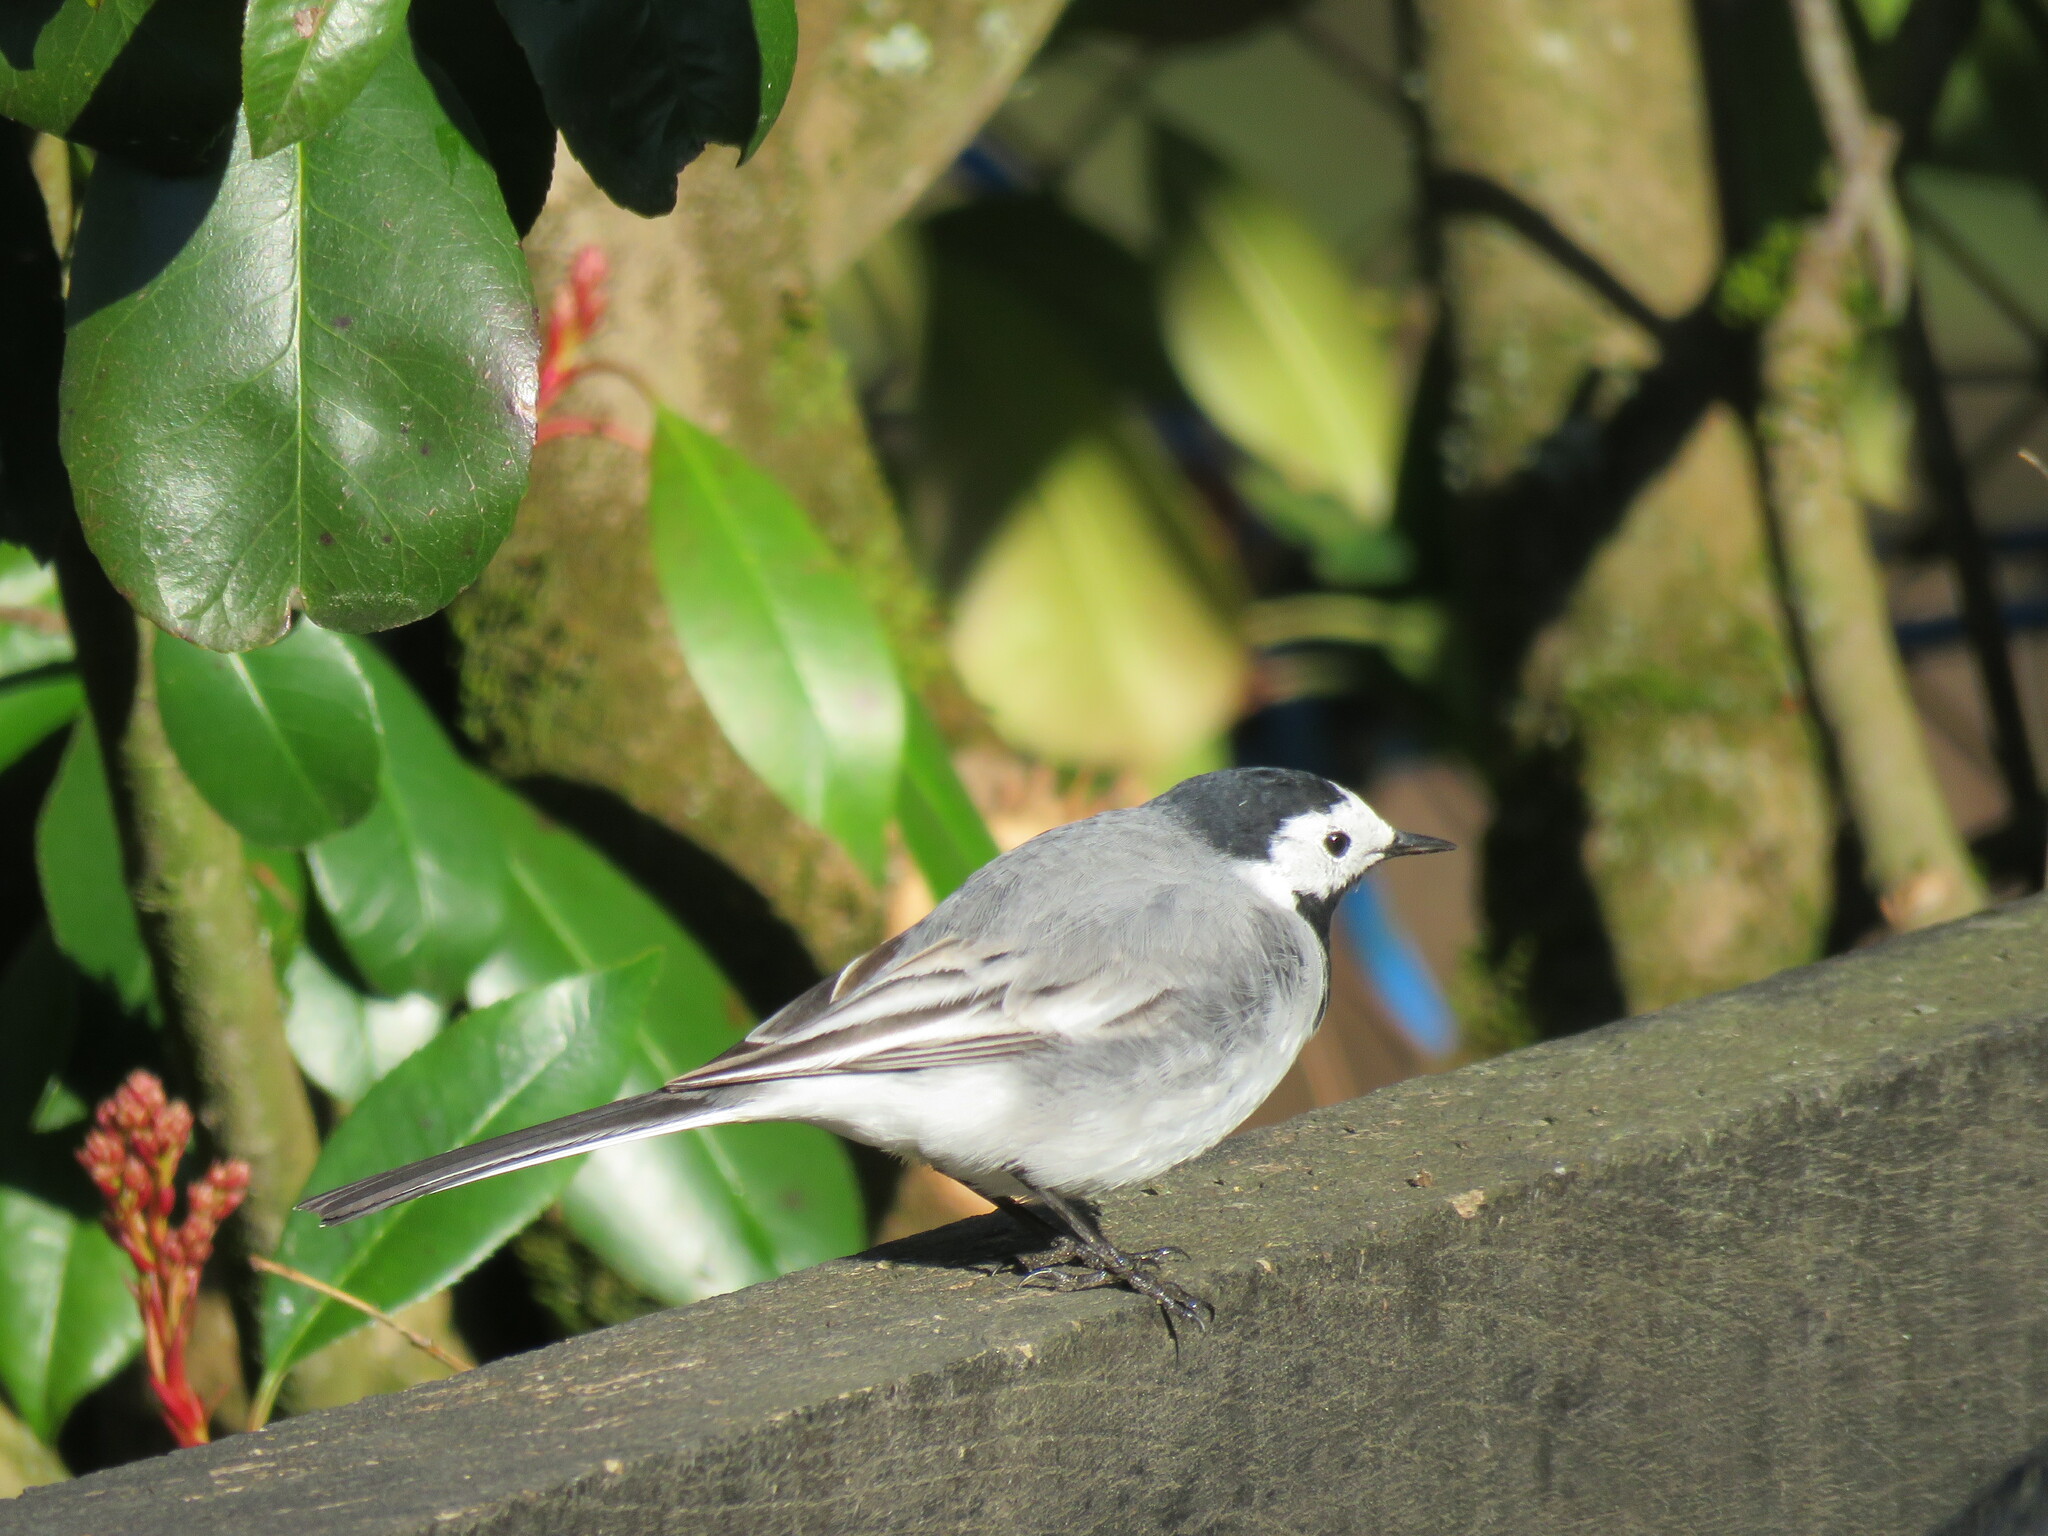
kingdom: Animalia
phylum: Chordata
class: Aves
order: Passeriformes
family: Motacillidae
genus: Motacilla
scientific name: Motacilla alba
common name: White wagtail
